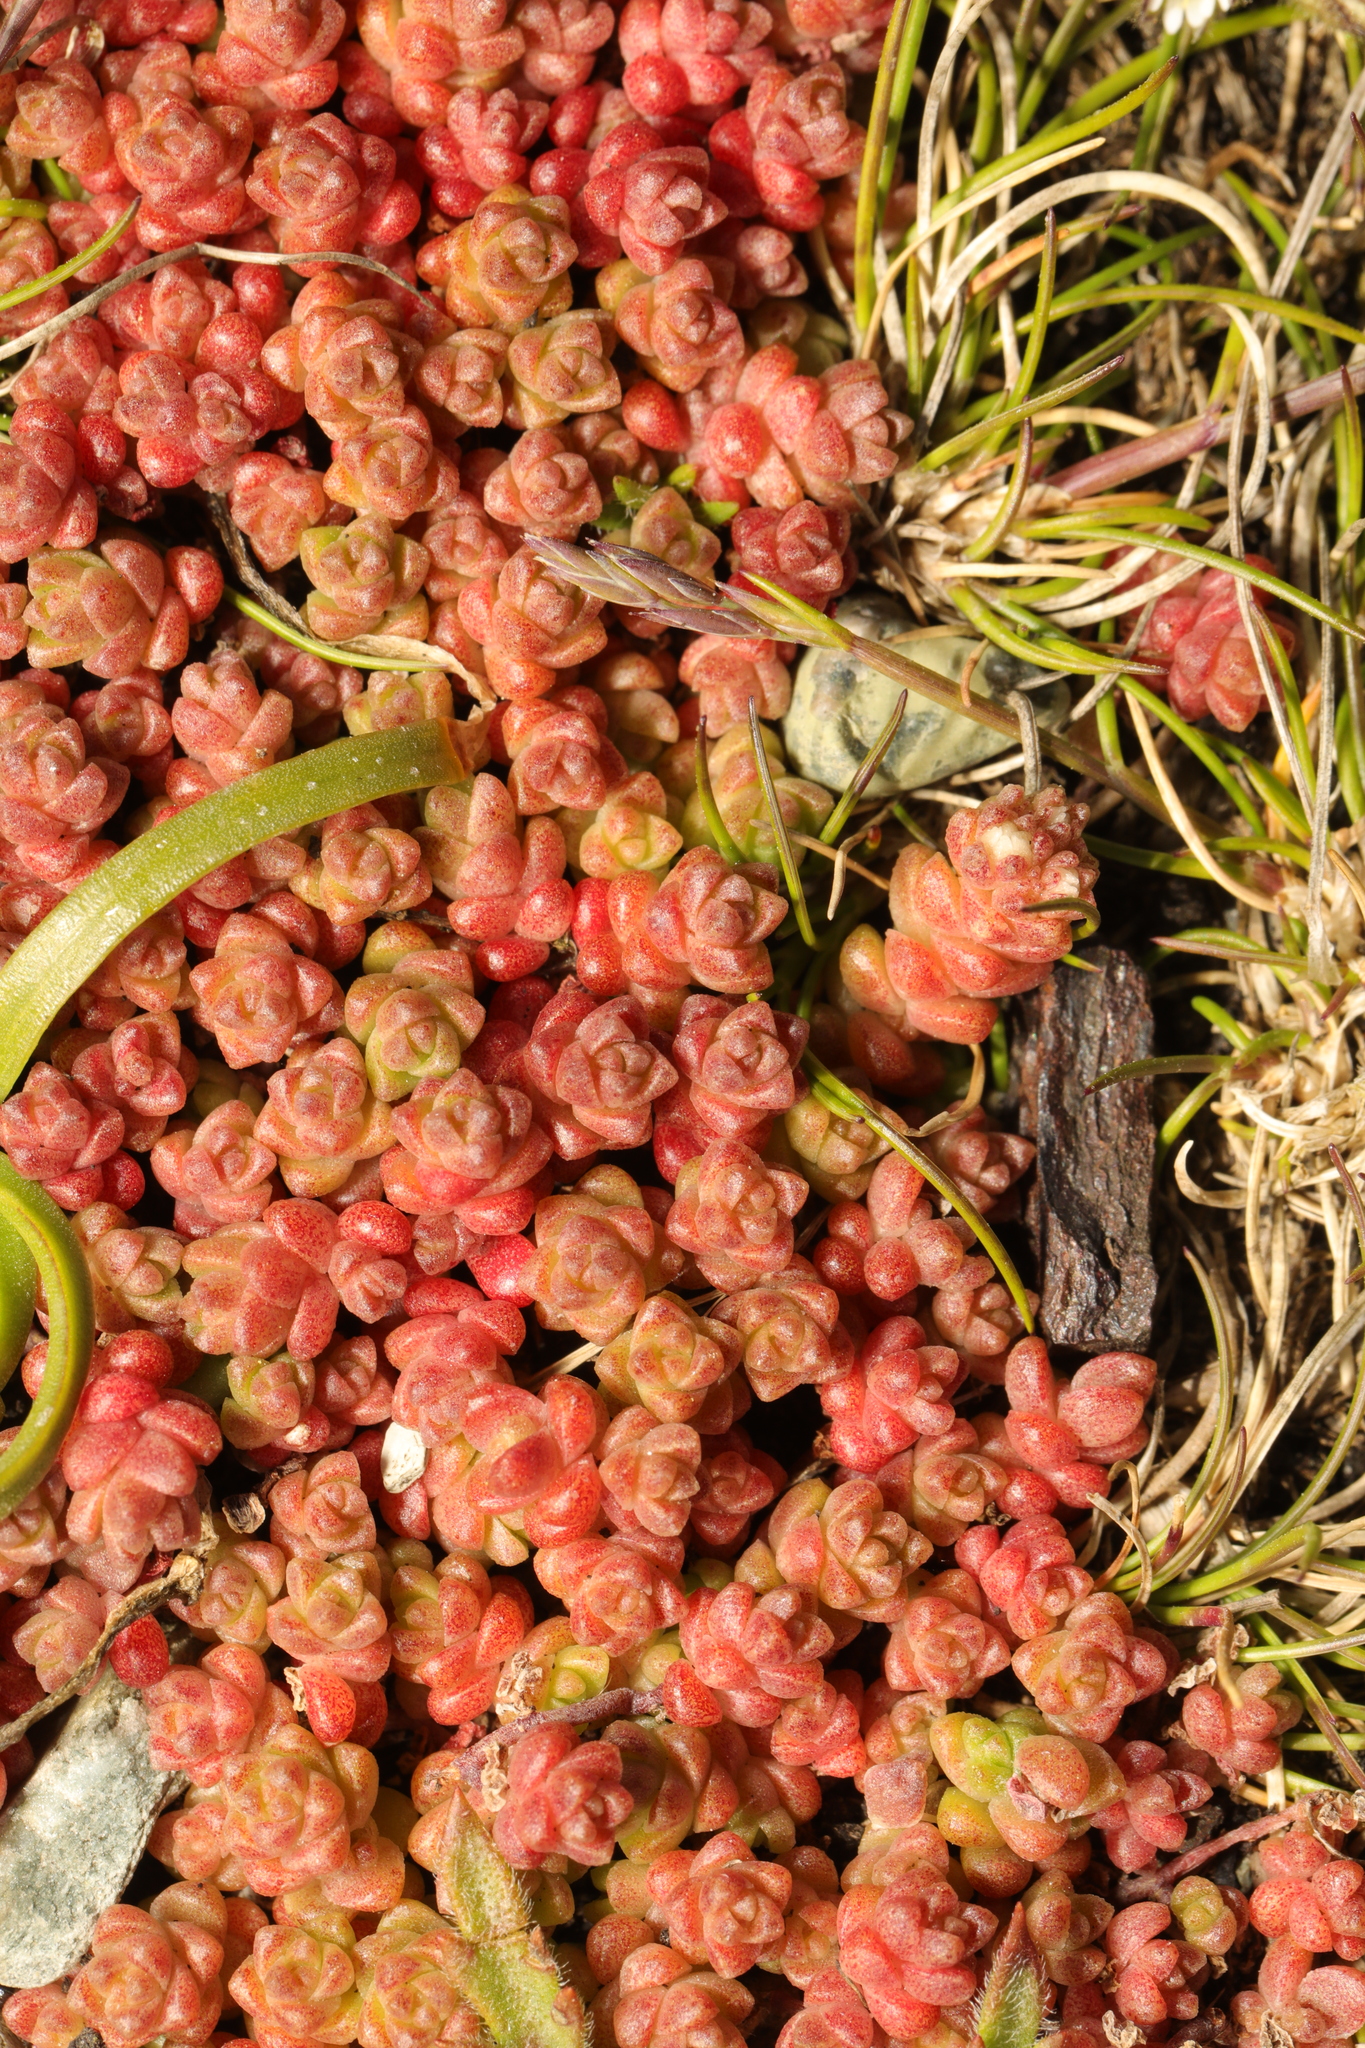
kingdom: Plantae
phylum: Tracheophyta
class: Magnoliopsida
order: Saxifragales
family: Crassulaceae
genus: Sedum
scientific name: Sedum anglicum
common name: English stonecrop
